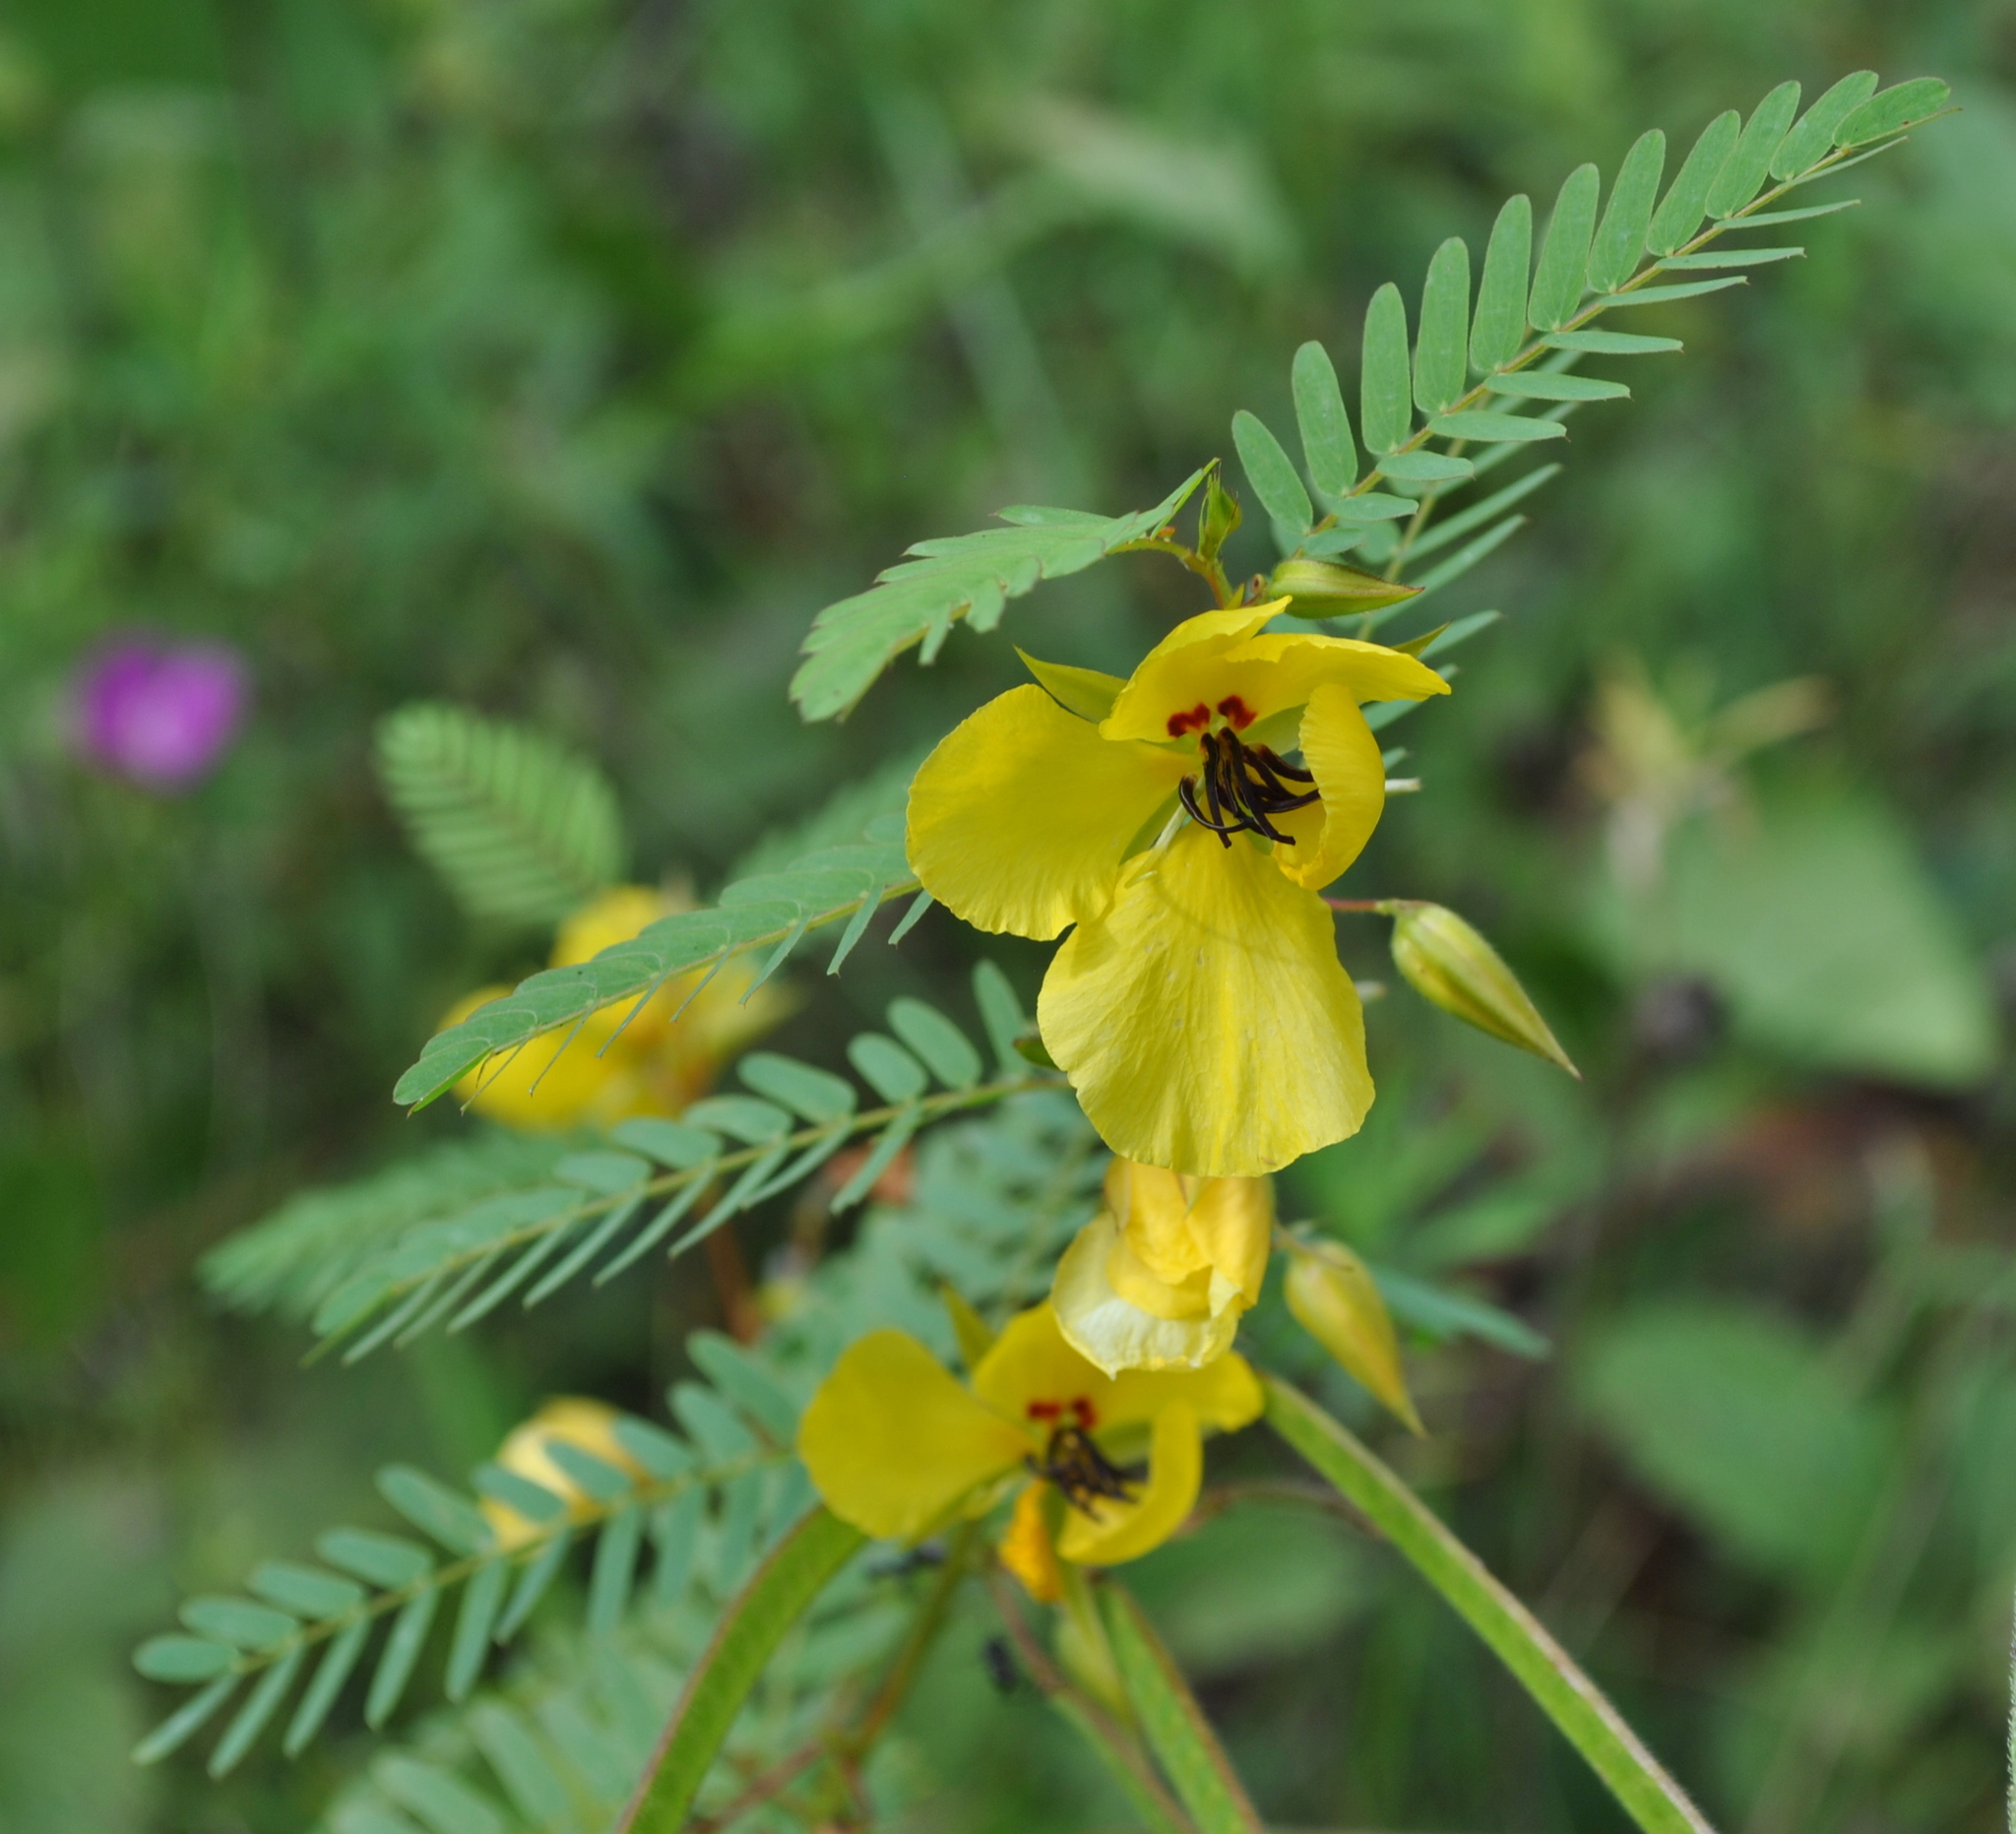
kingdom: Plantae
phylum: Tracheophyta
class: Magnoliopsida
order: Fabales
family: Fabaceae
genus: Chamaecrista
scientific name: Chamaecrista fasciculata
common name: Golden cassia
